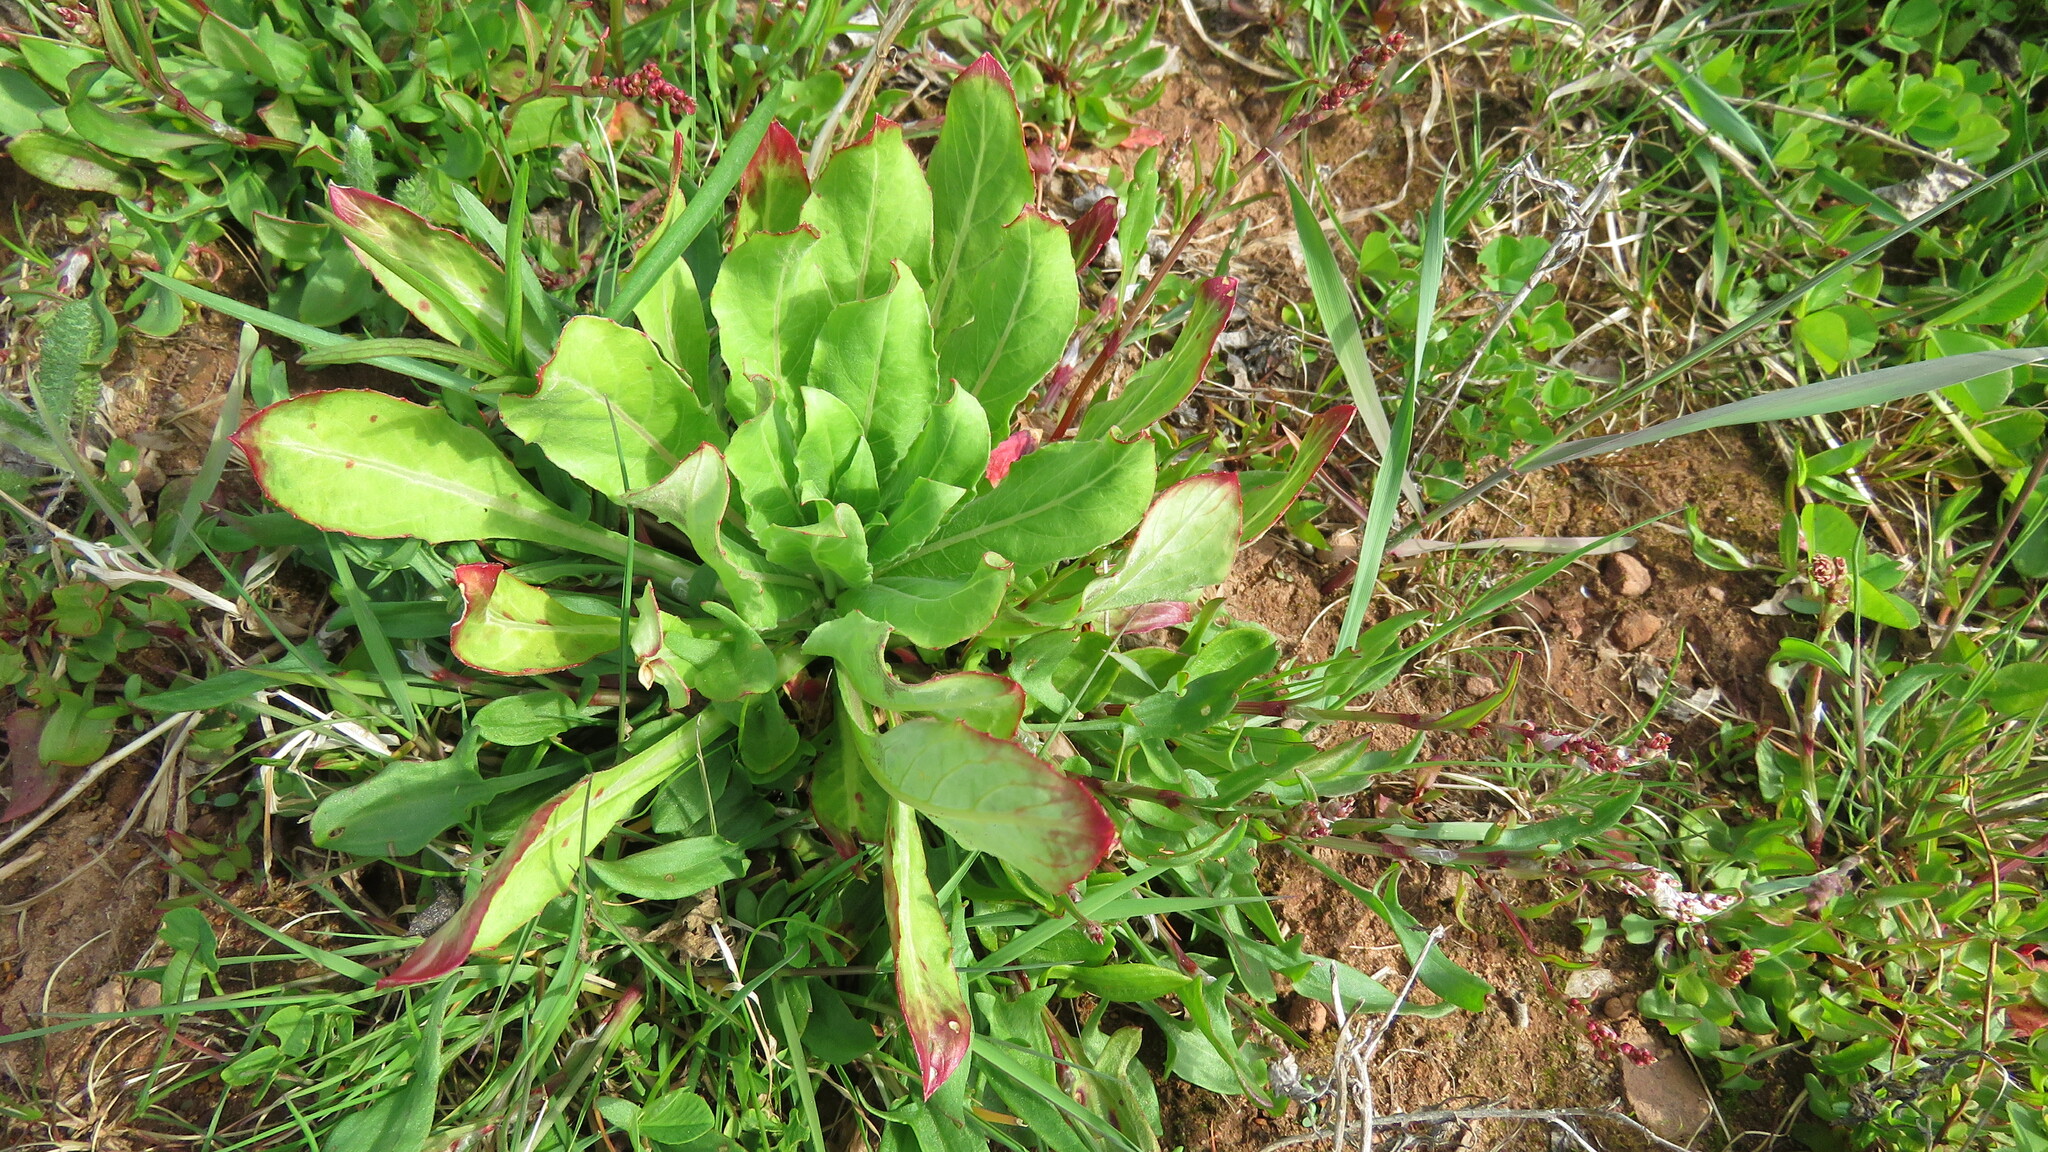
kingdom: Plantae
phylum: Tracheophyta
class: Magnoliopsida
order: Myrtales
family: Onagraceae
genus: Oenothera
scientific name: Oenothera biennis
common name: Common evening-primrose
